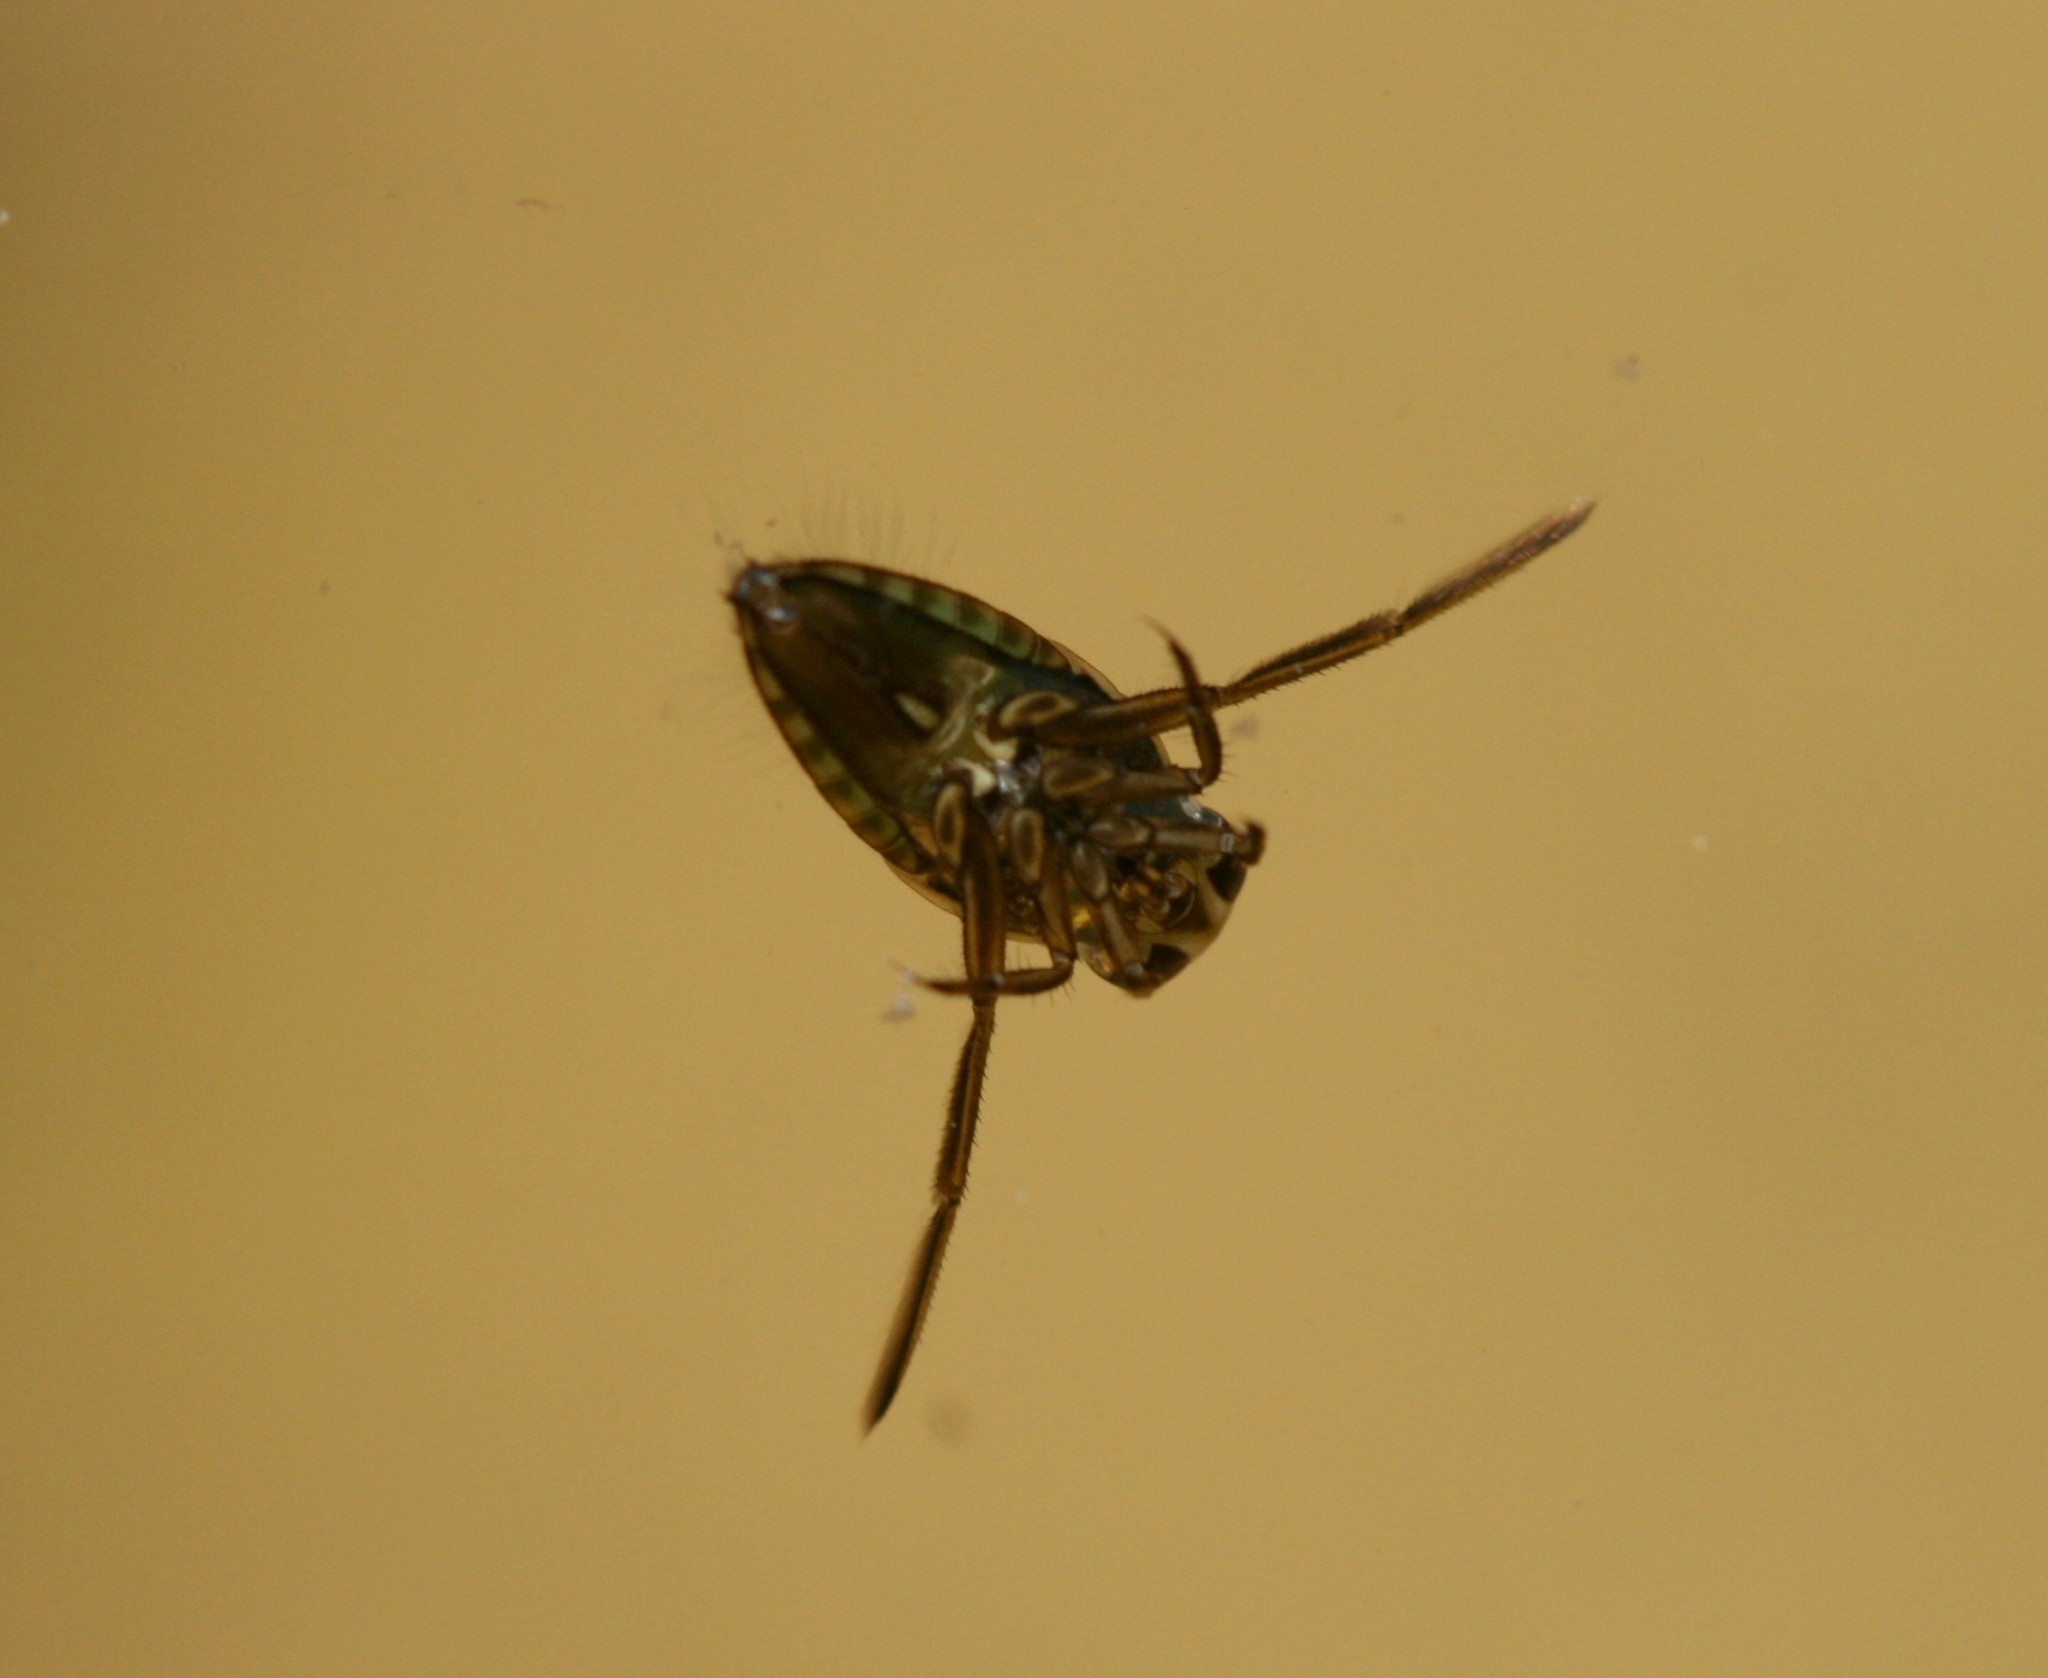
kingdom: Animalia
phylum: Arthropoda
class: Insecta
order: Hemiptera
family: Notonectidae
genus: Notonecta
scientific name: Notonecta
